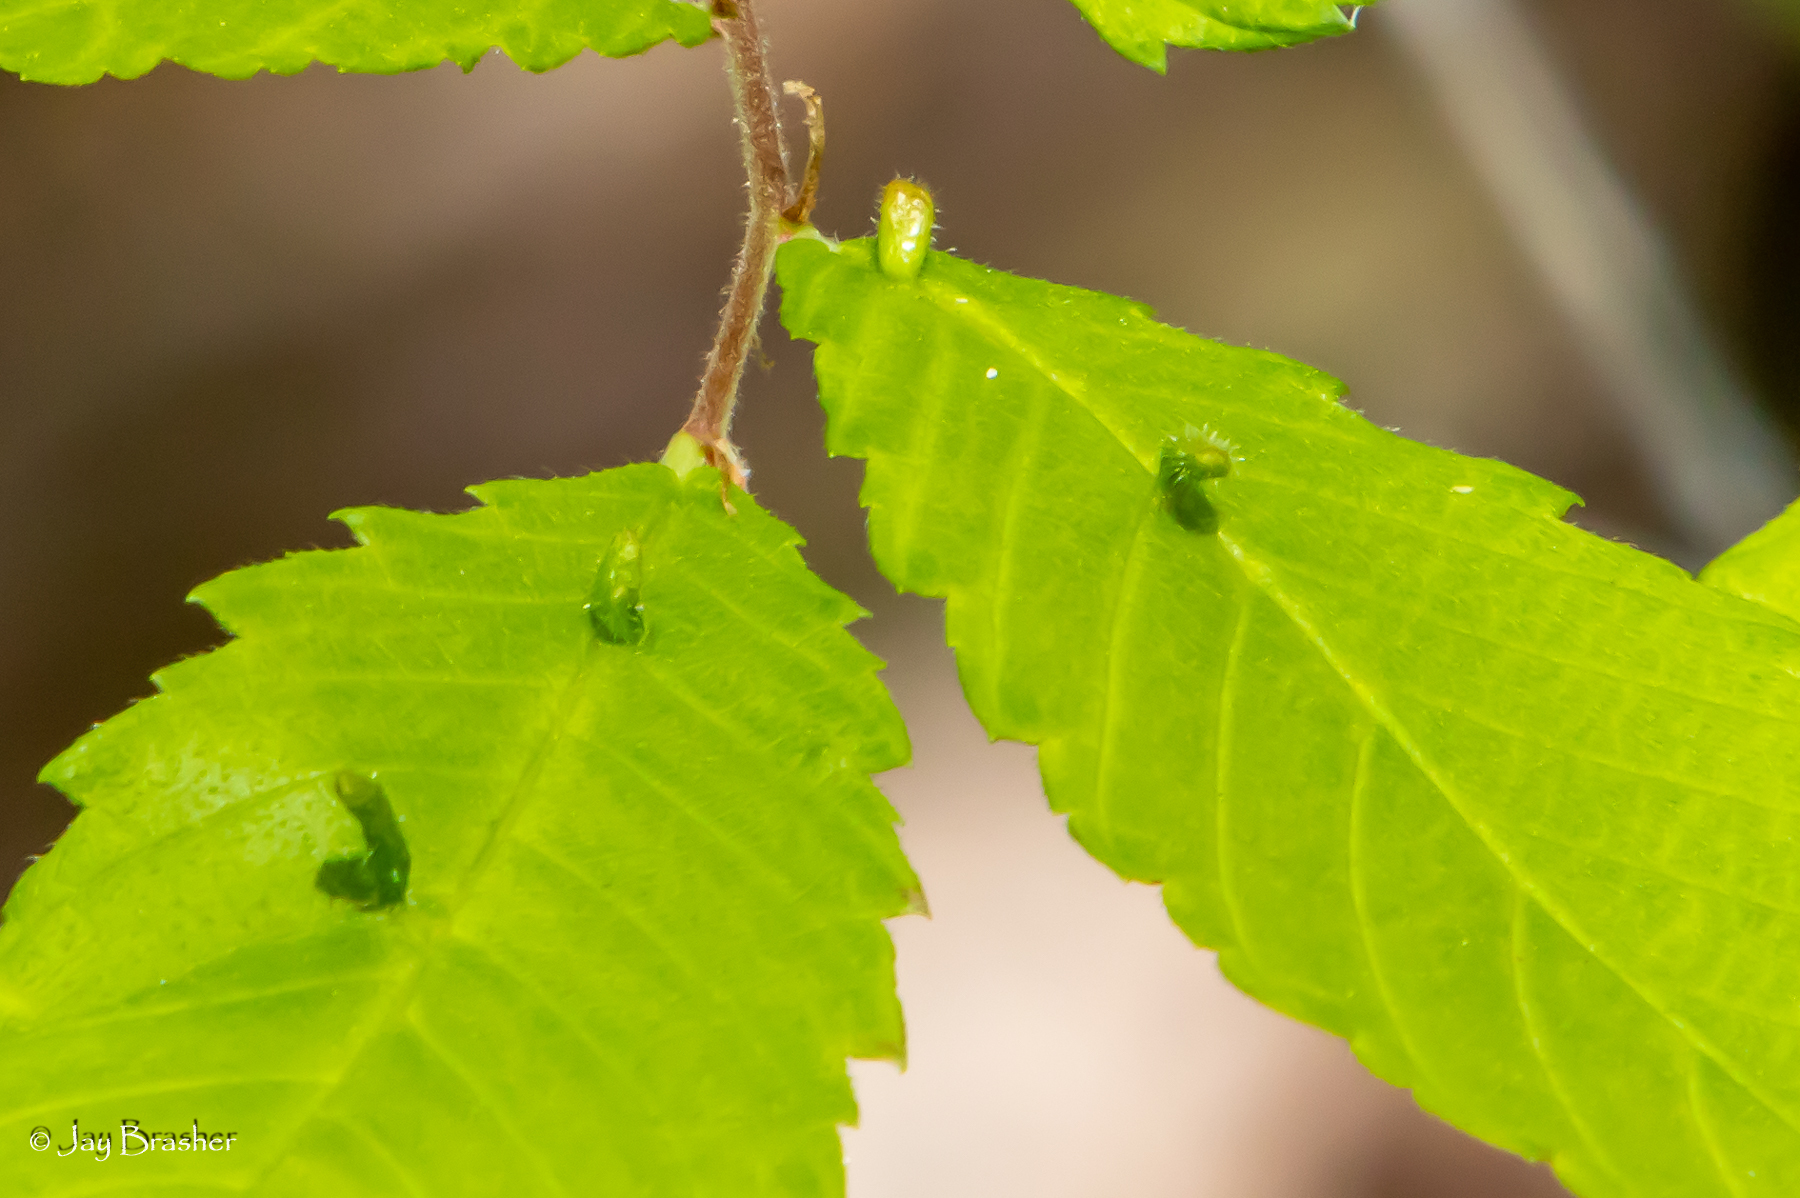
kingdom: Animalia
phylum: Arthropoda
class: Arachnida
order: Trombidiformes
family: Eriophyidae
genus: Aceria
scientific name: Aceria
